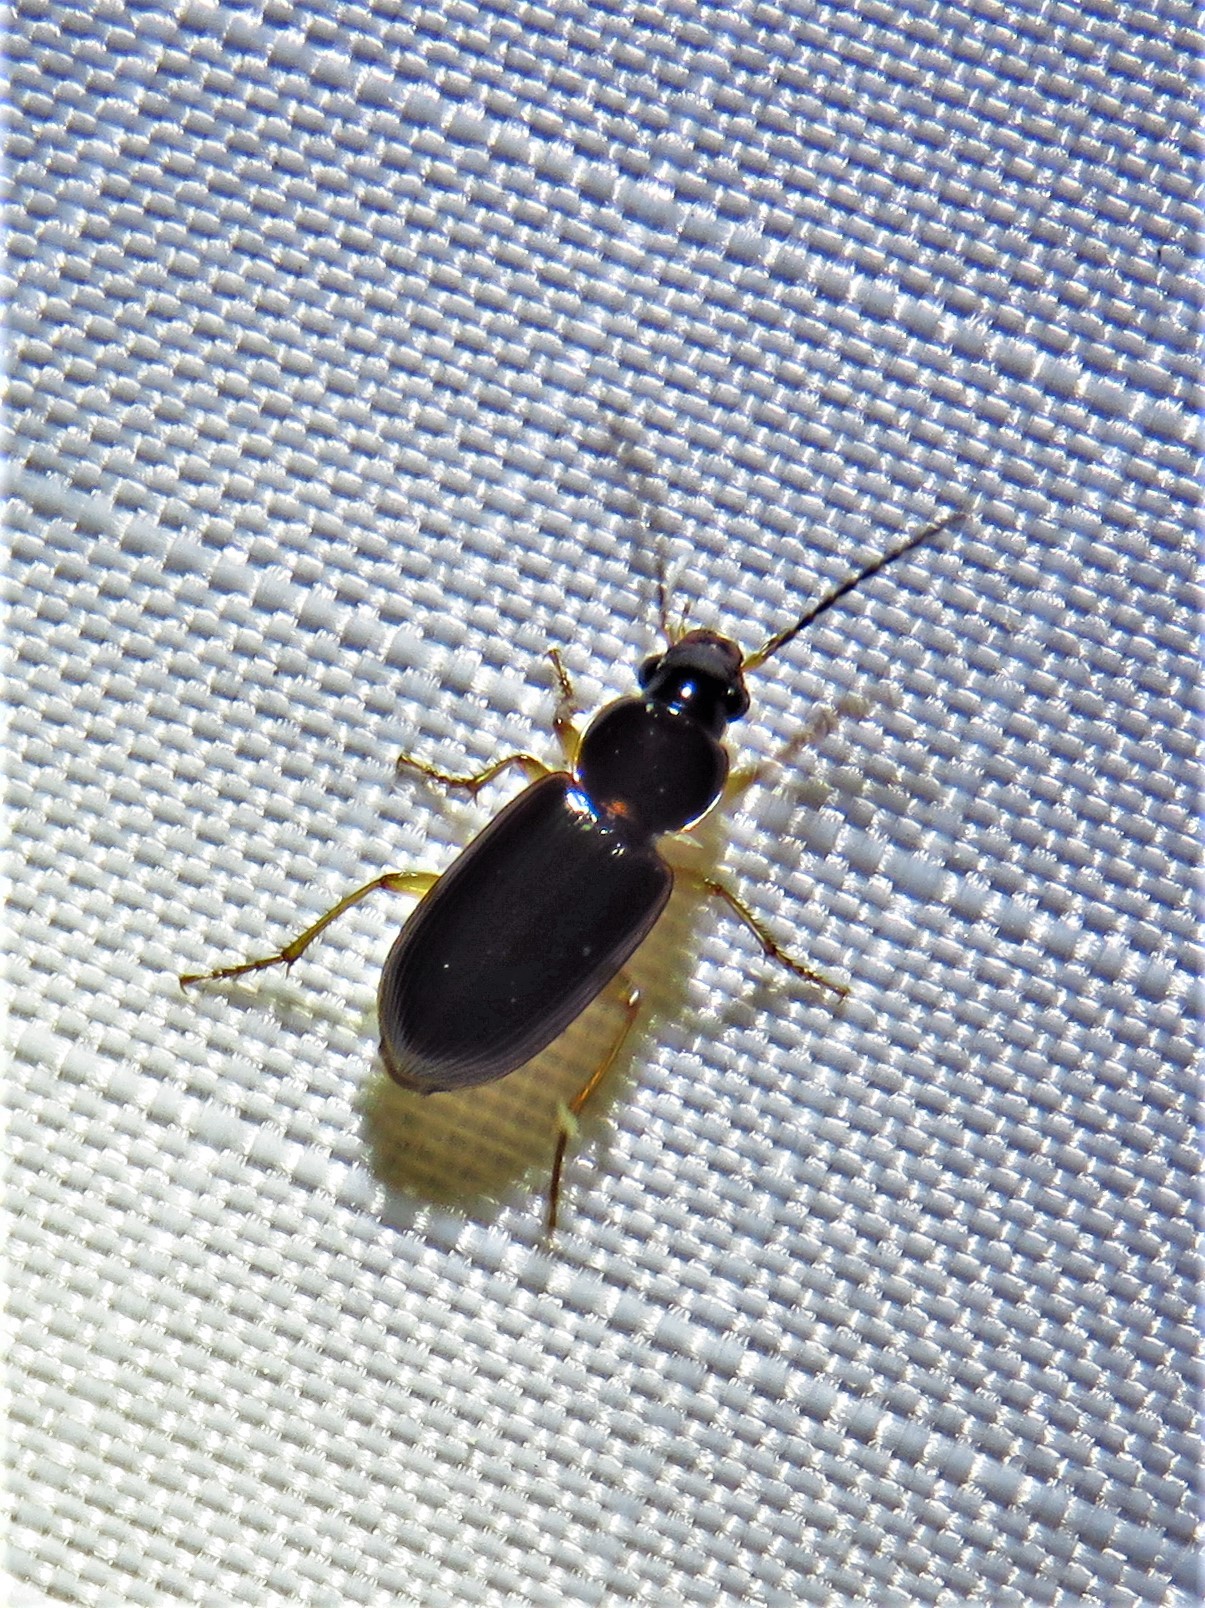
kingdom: Animalia
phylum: Arthropoda
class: Insecta
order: Coleoptera
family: Carabidae
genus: Stenolophus
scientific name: Stenolophus ochropezus
